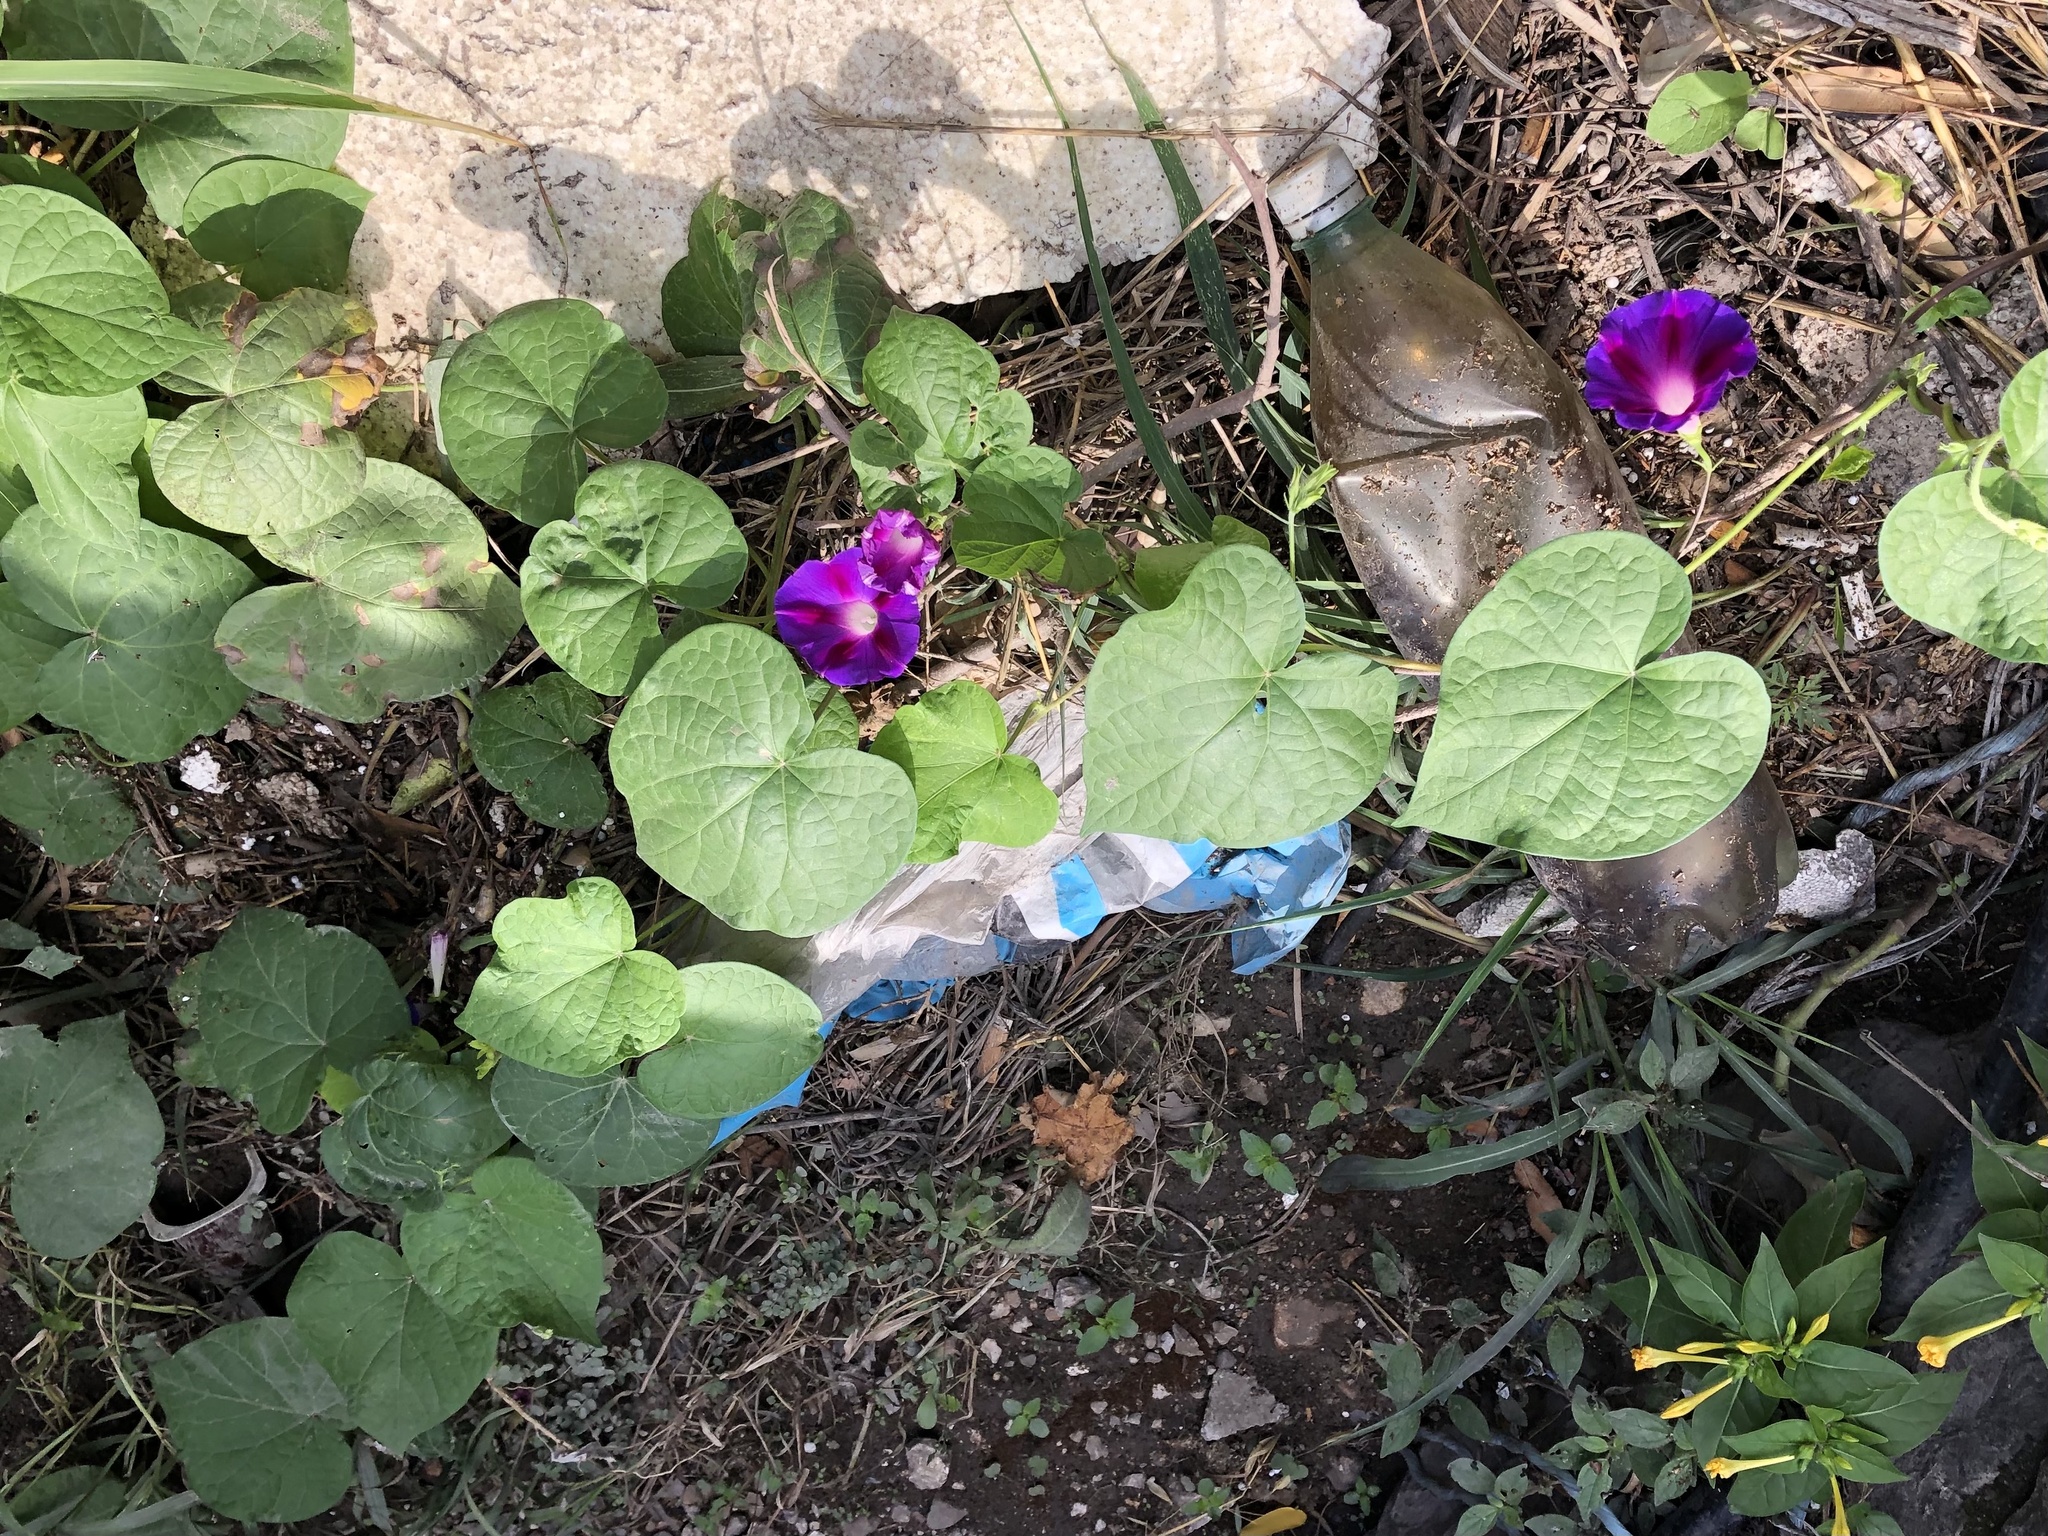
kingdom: Plantae
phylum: Tracheophyta
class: Magnoliopsida
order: Solanales
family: Convolvulaceae
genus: Ipomoea
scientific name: Ipomoea purpurea
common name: Common morning-glory
